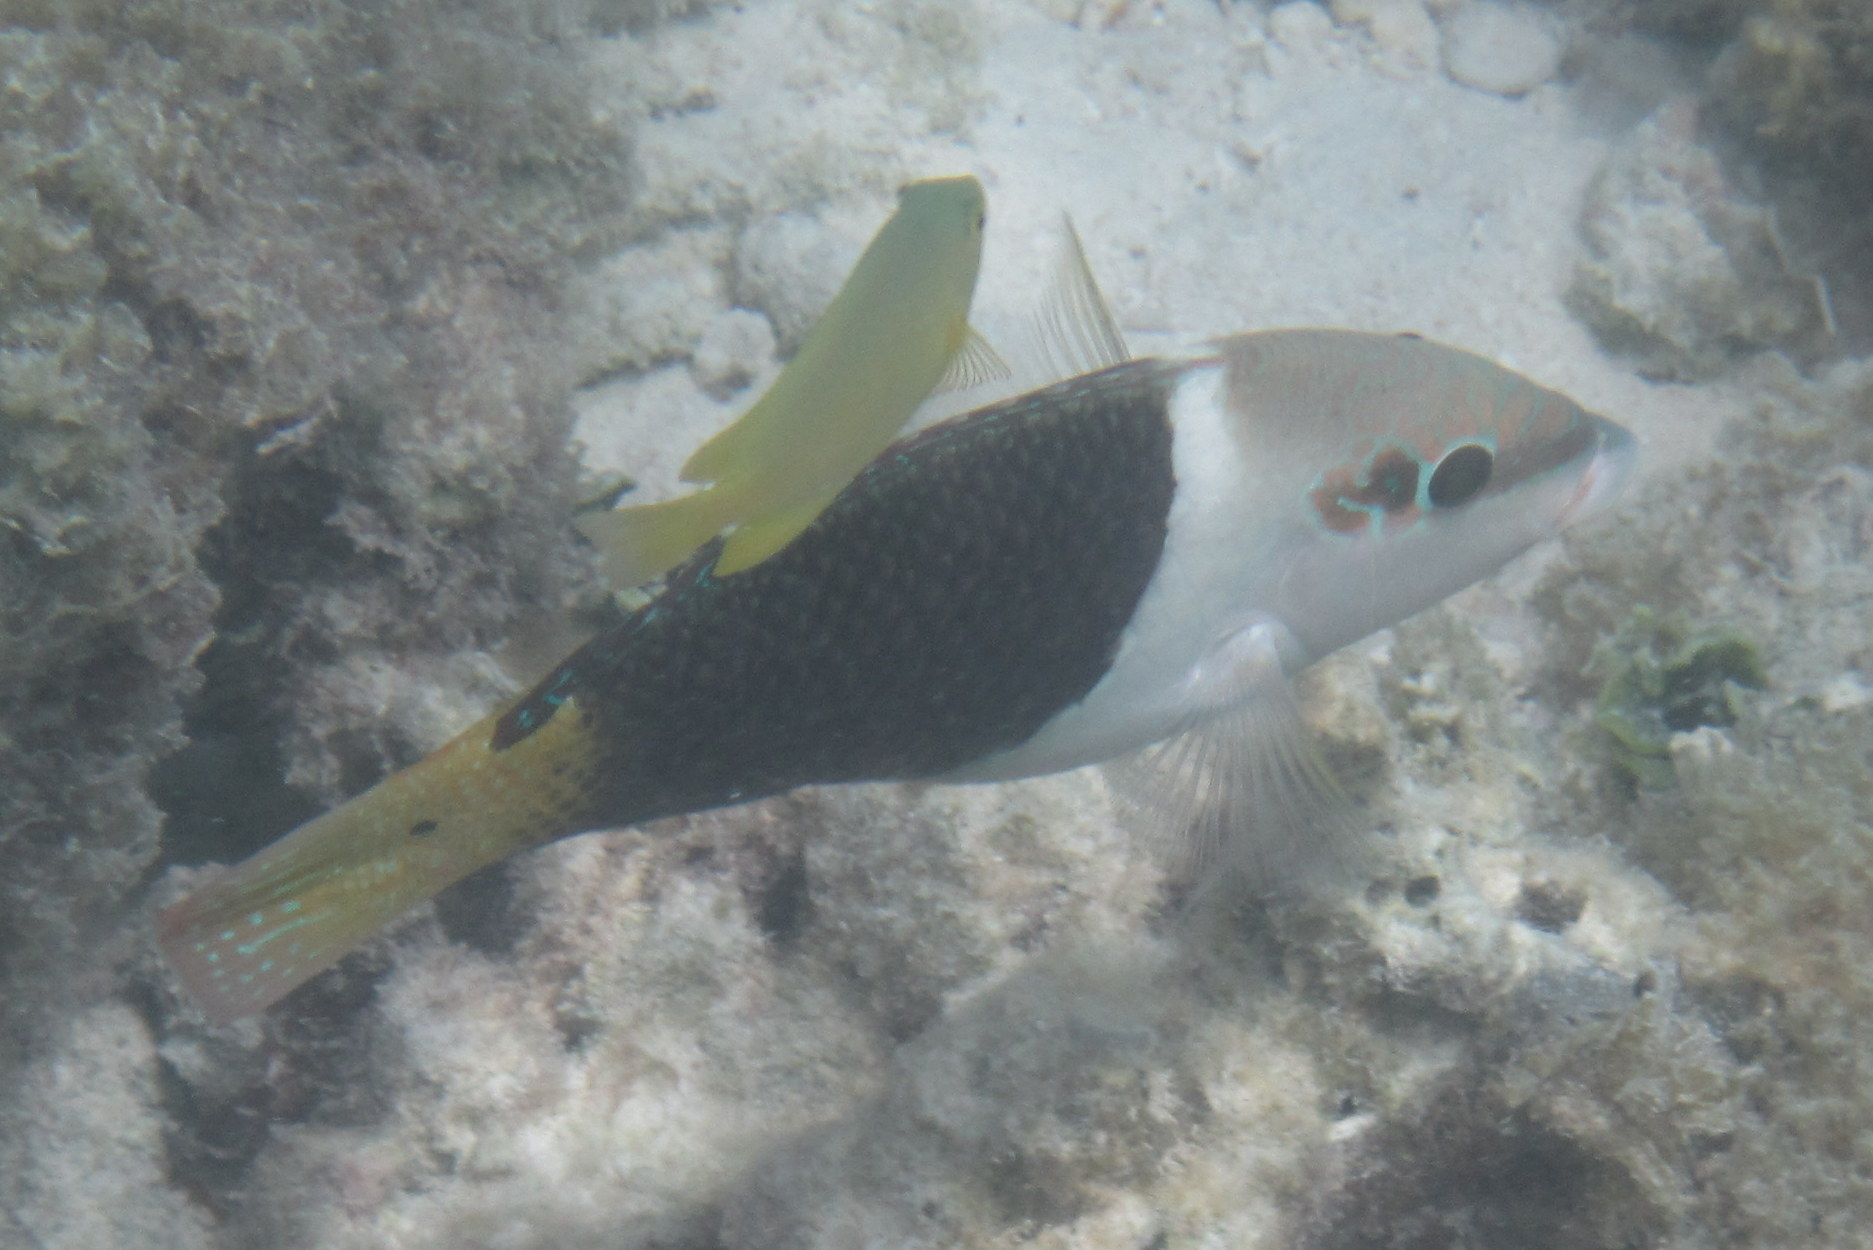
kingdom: Animalia
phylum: Chordata
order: Perciformes
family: Labridae
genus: Hemigymnus
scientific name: Hemigymnus melapterus
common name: Blackeye thicklip
